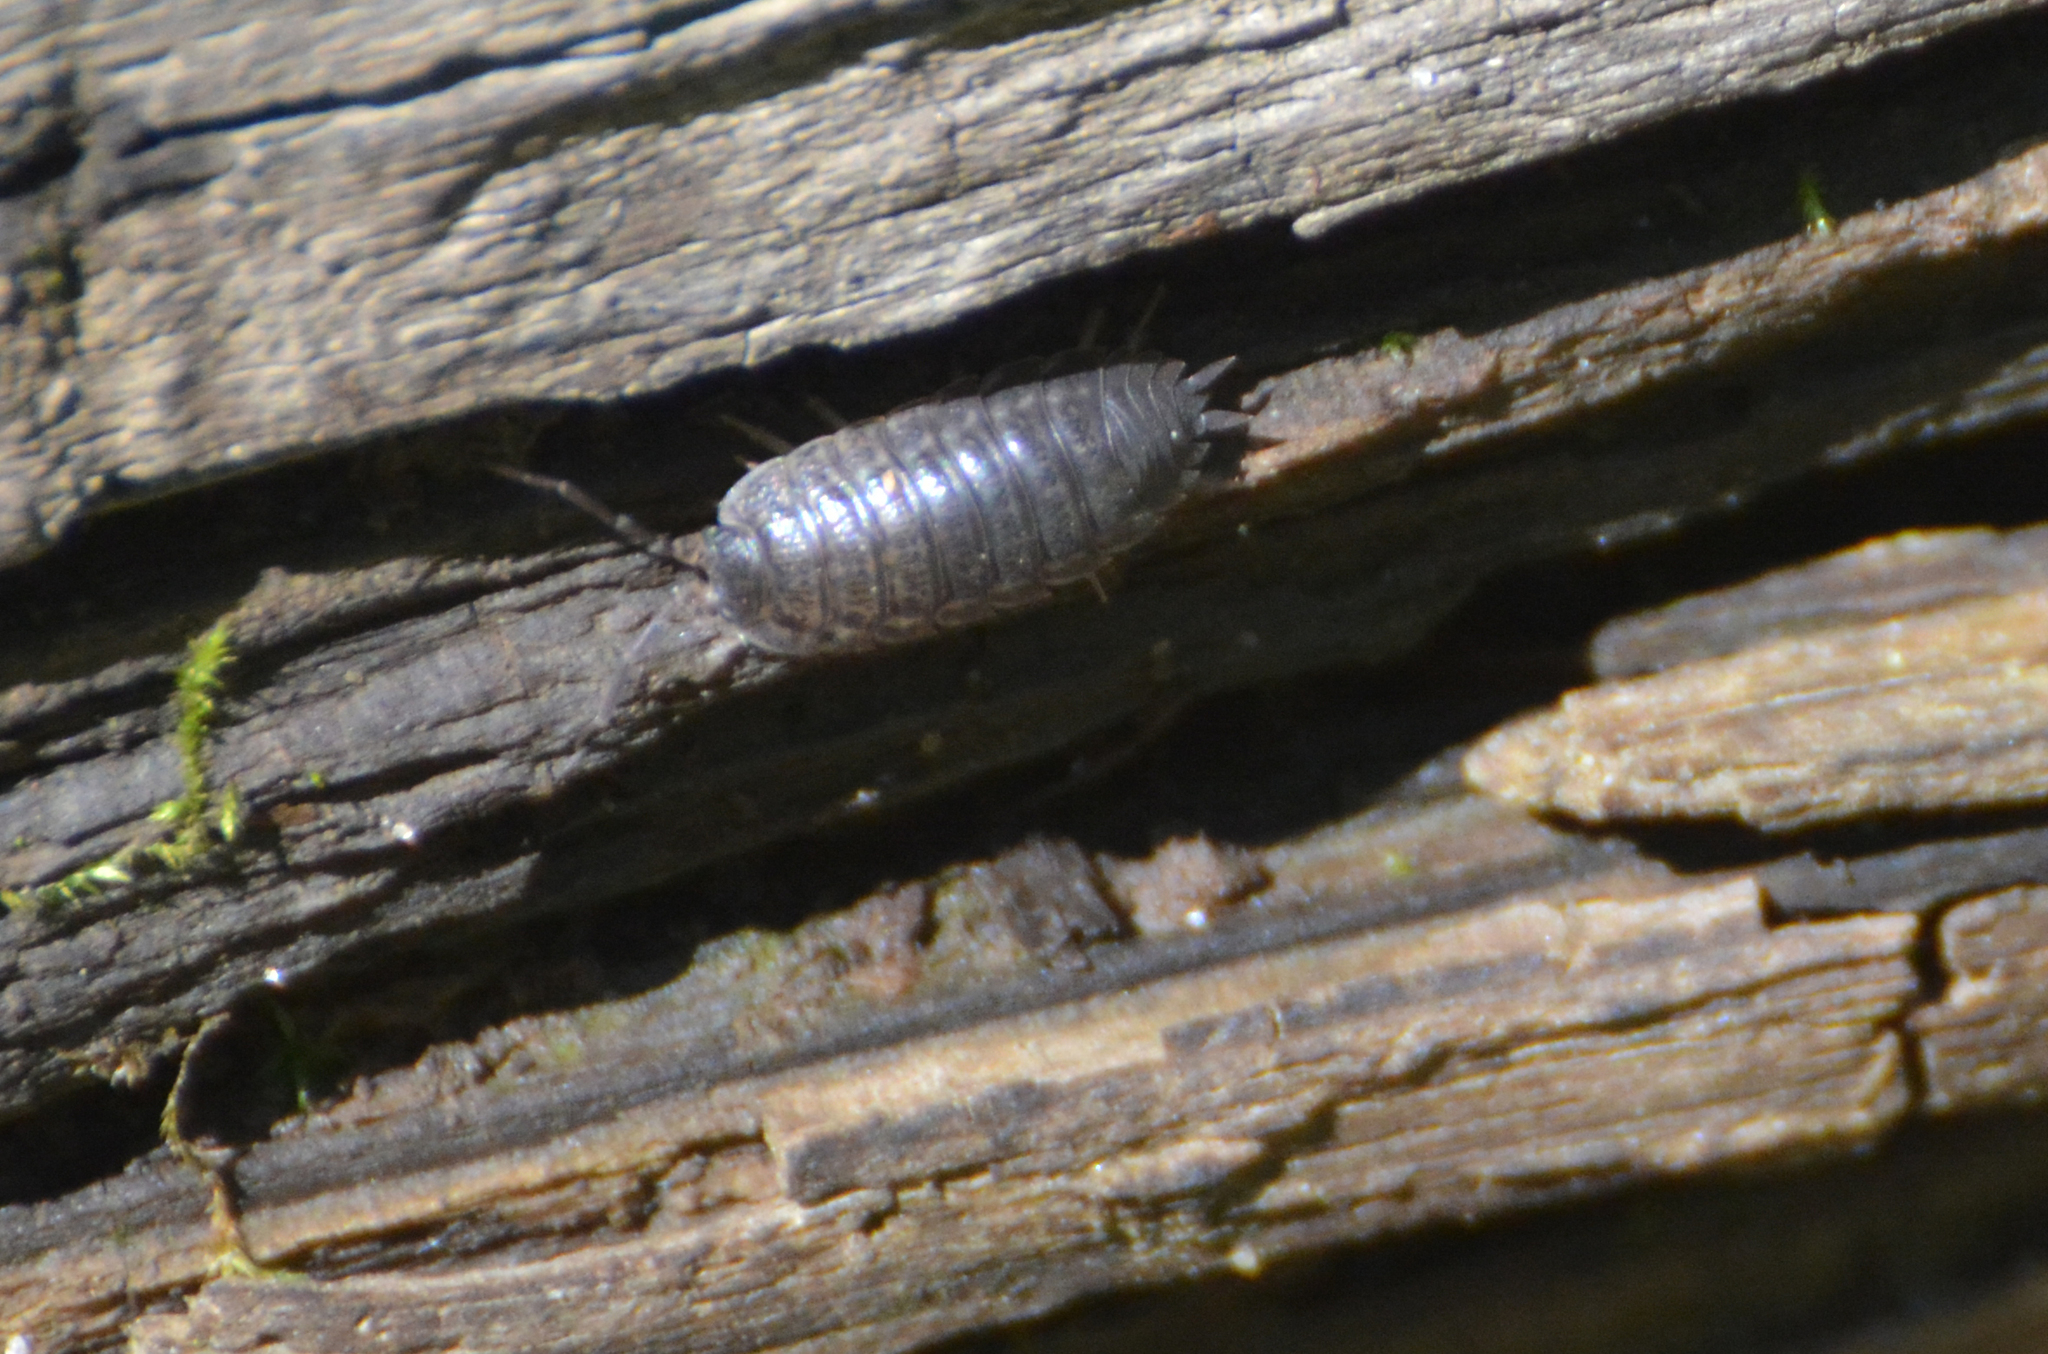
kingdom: Animalia
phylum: Arthropoda
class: Malacostraca
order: Isopoda
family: Trachelipodidae
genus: Trachelipus
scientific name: Trachelipus rathkii
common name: Isopod
